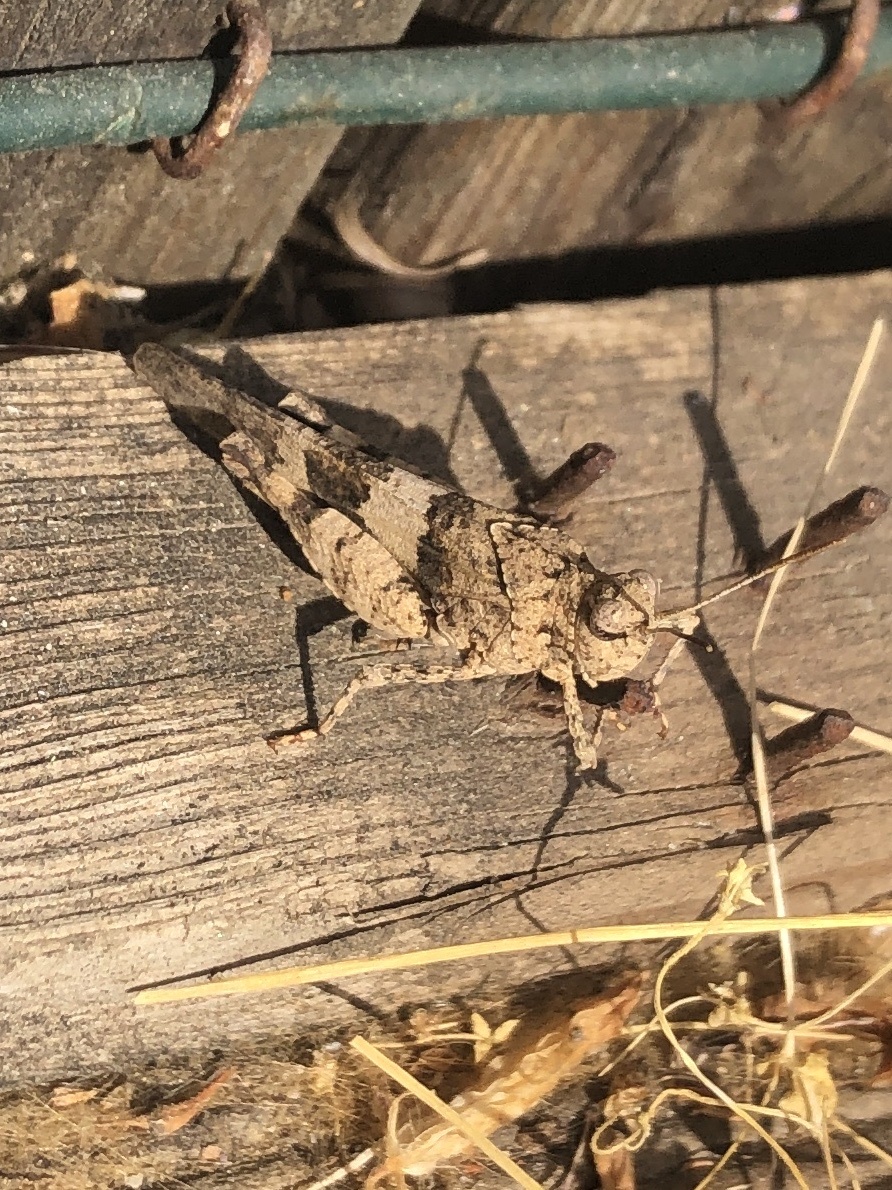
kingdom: Animalia
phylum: Arthropoda
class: Insecta
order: Orthoptera
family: Acrididae
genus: Oedipoda
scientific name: Oedipoda caerulescens
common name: Blue-winged grasshopper
